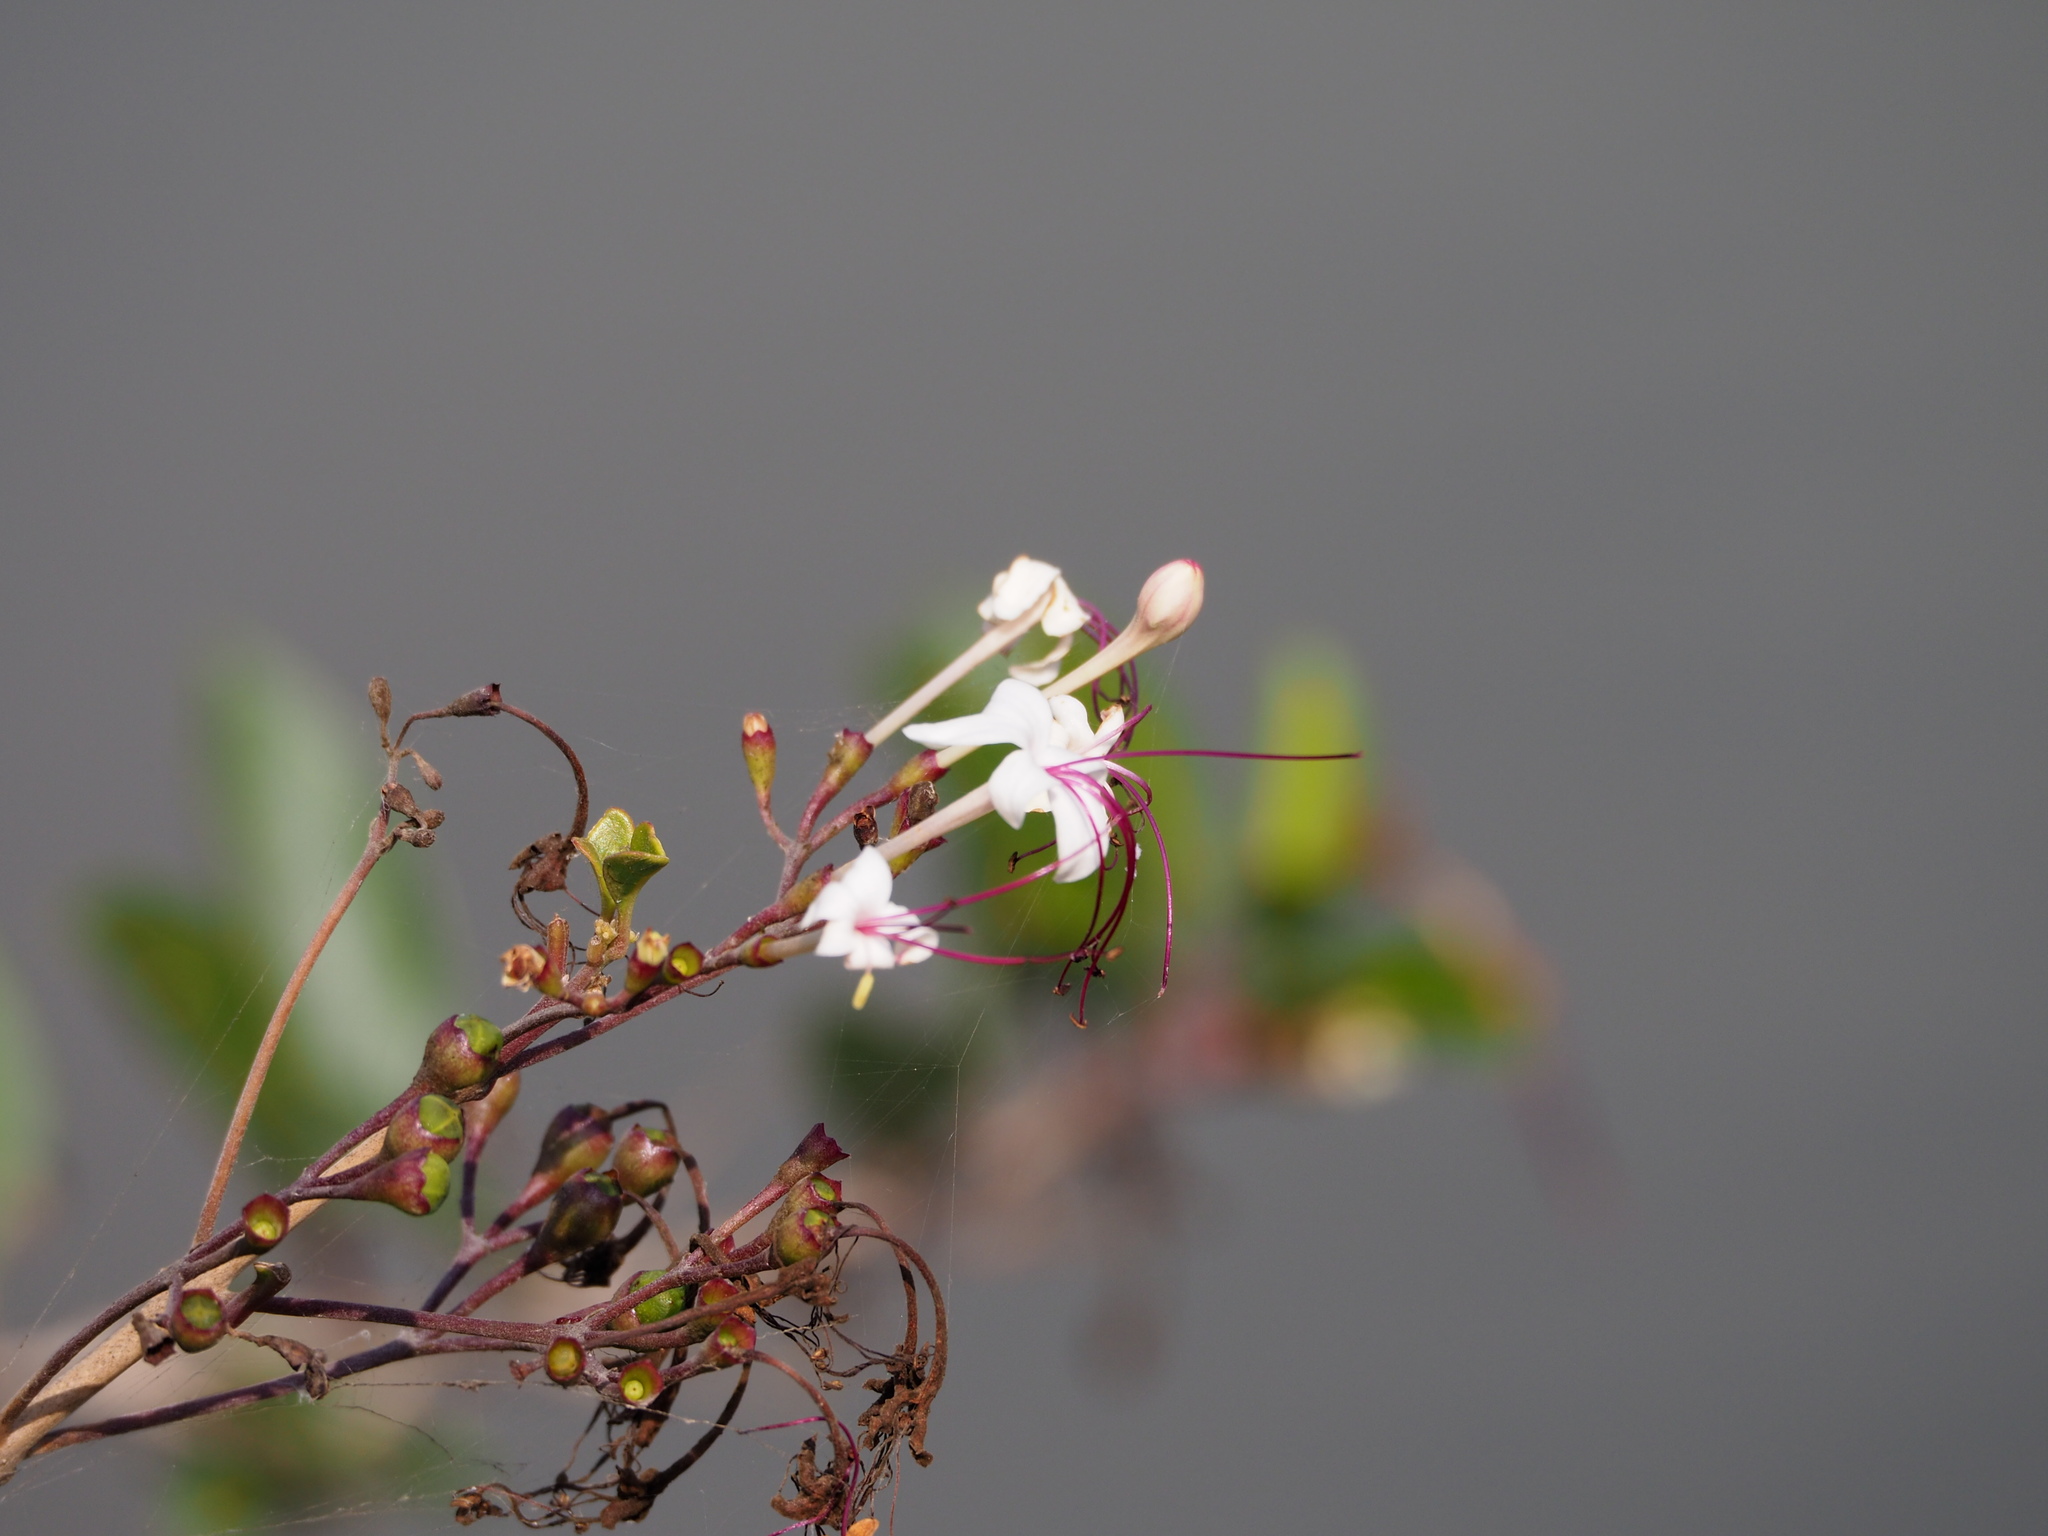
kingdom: Plantae
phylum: Tracheophyta
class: Magnoliopsida
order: Lamiales
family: Lamiaceae
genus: Volkameria
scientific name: Volkameria inermis
